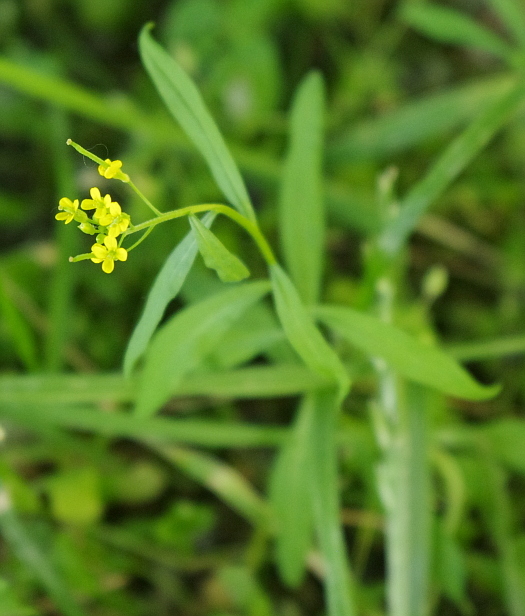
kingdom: Plantae
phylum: Tracheophyta
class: Magnoliopsida
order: Brassicales
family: Brassicaceae
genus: Erysimum
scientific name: Erysimum cheiranthoides
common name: Treacle mustard
